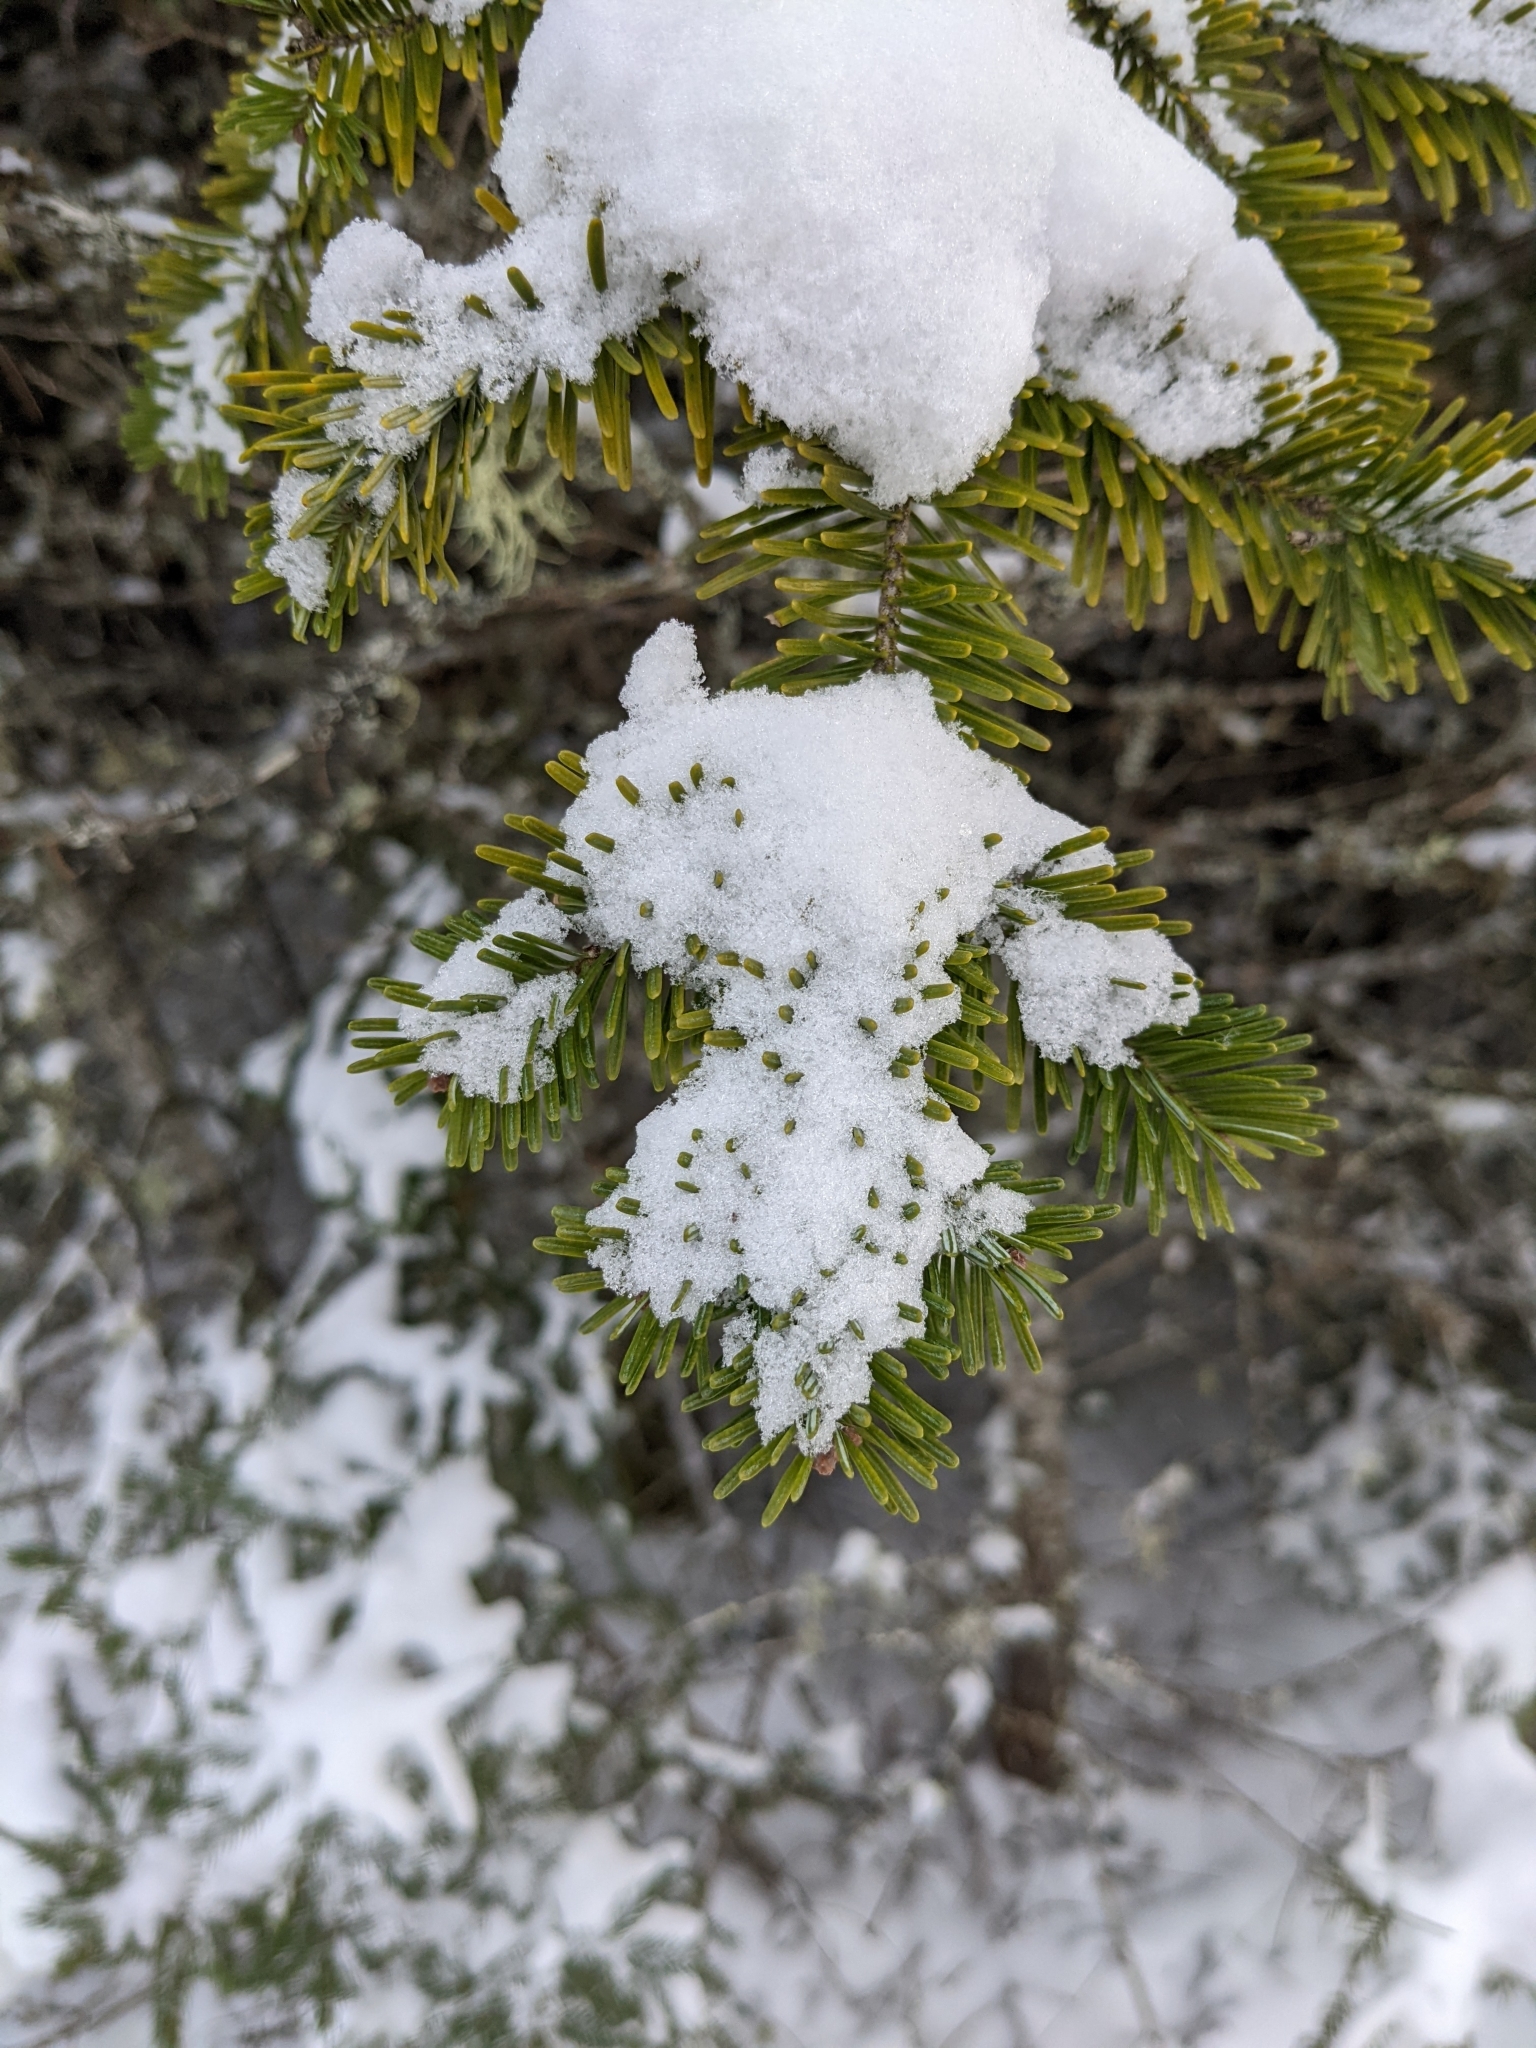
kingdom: Plantae
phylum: Tracheophyta
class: Pinopsida
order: Pinales
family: Pinaceae
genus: Abies
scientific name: Abies balsamea
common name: Balsam fir
